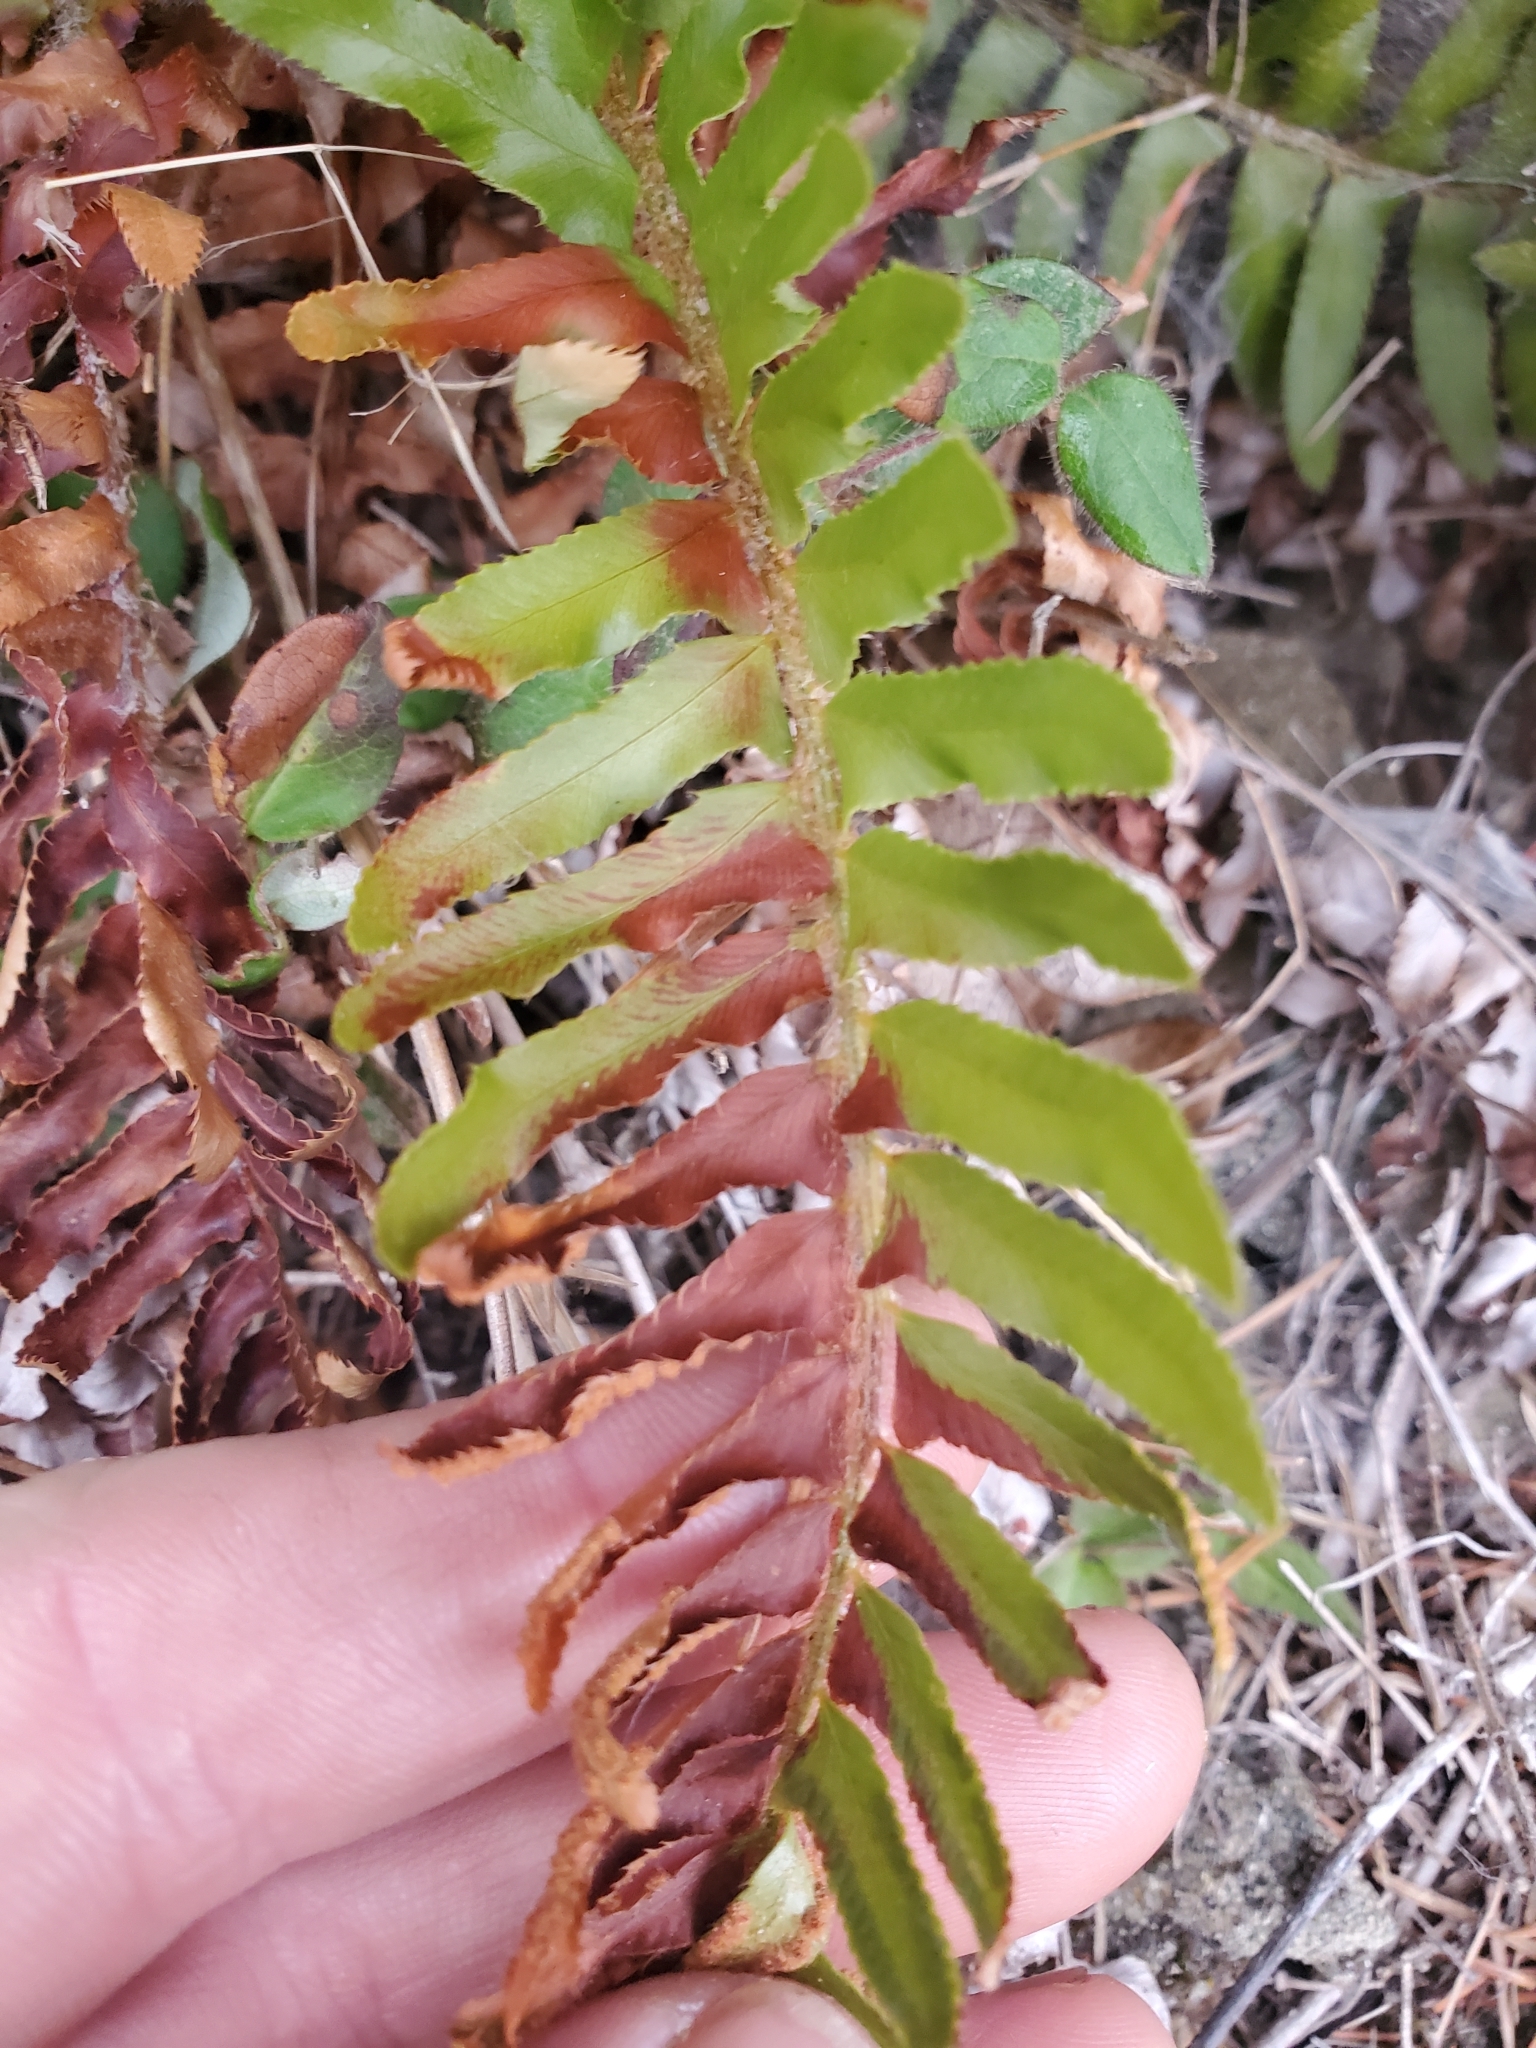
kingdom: Plantae
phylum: Tracheophyta
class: Polypodiopsida
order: Polypodiales
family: Dryopteridaceae
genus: Polystichum
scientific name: Polystichum munitum
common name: Western sword-fern
